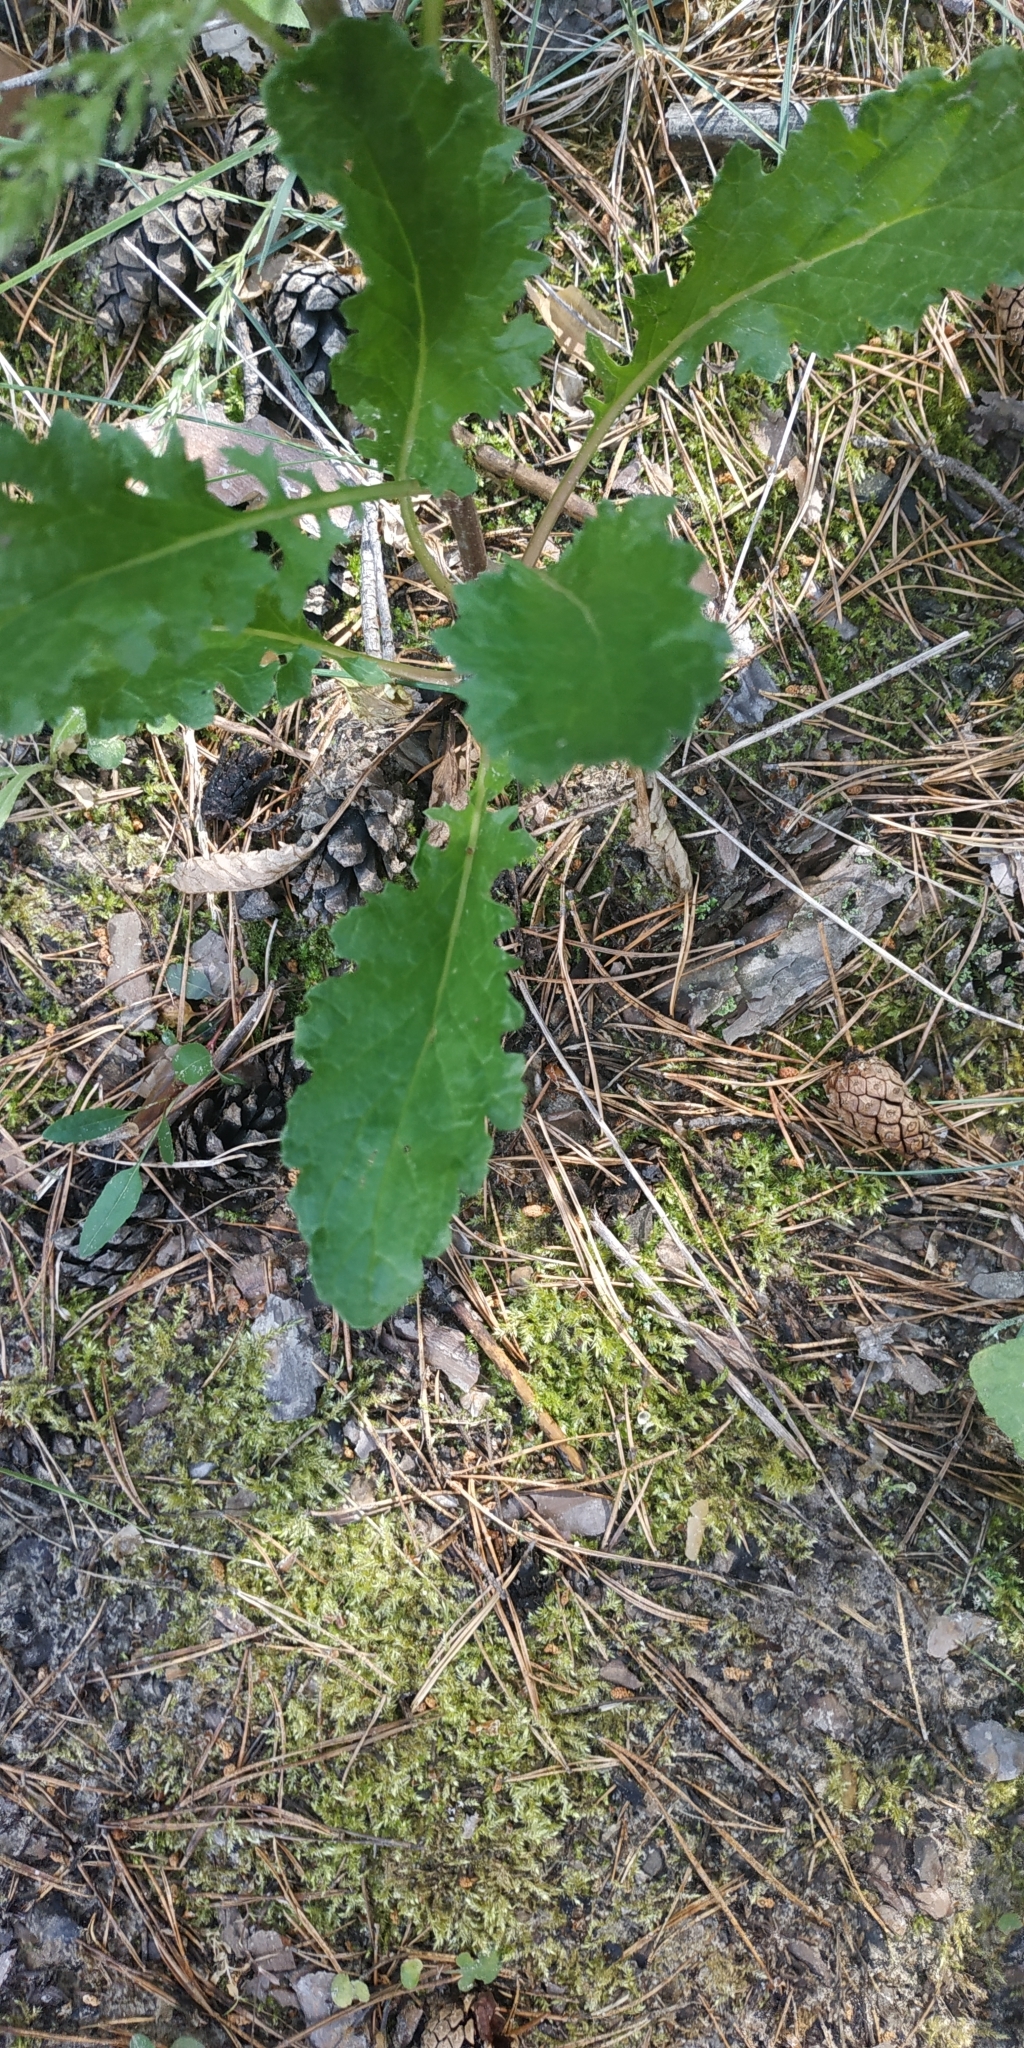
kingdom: Plantae
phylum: Tracheophyta
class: Magnoliopsida
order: Asterales
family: Asteraceae
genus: Jacobaea
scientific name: Jacobaea vulgaris
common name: Stinking willie
